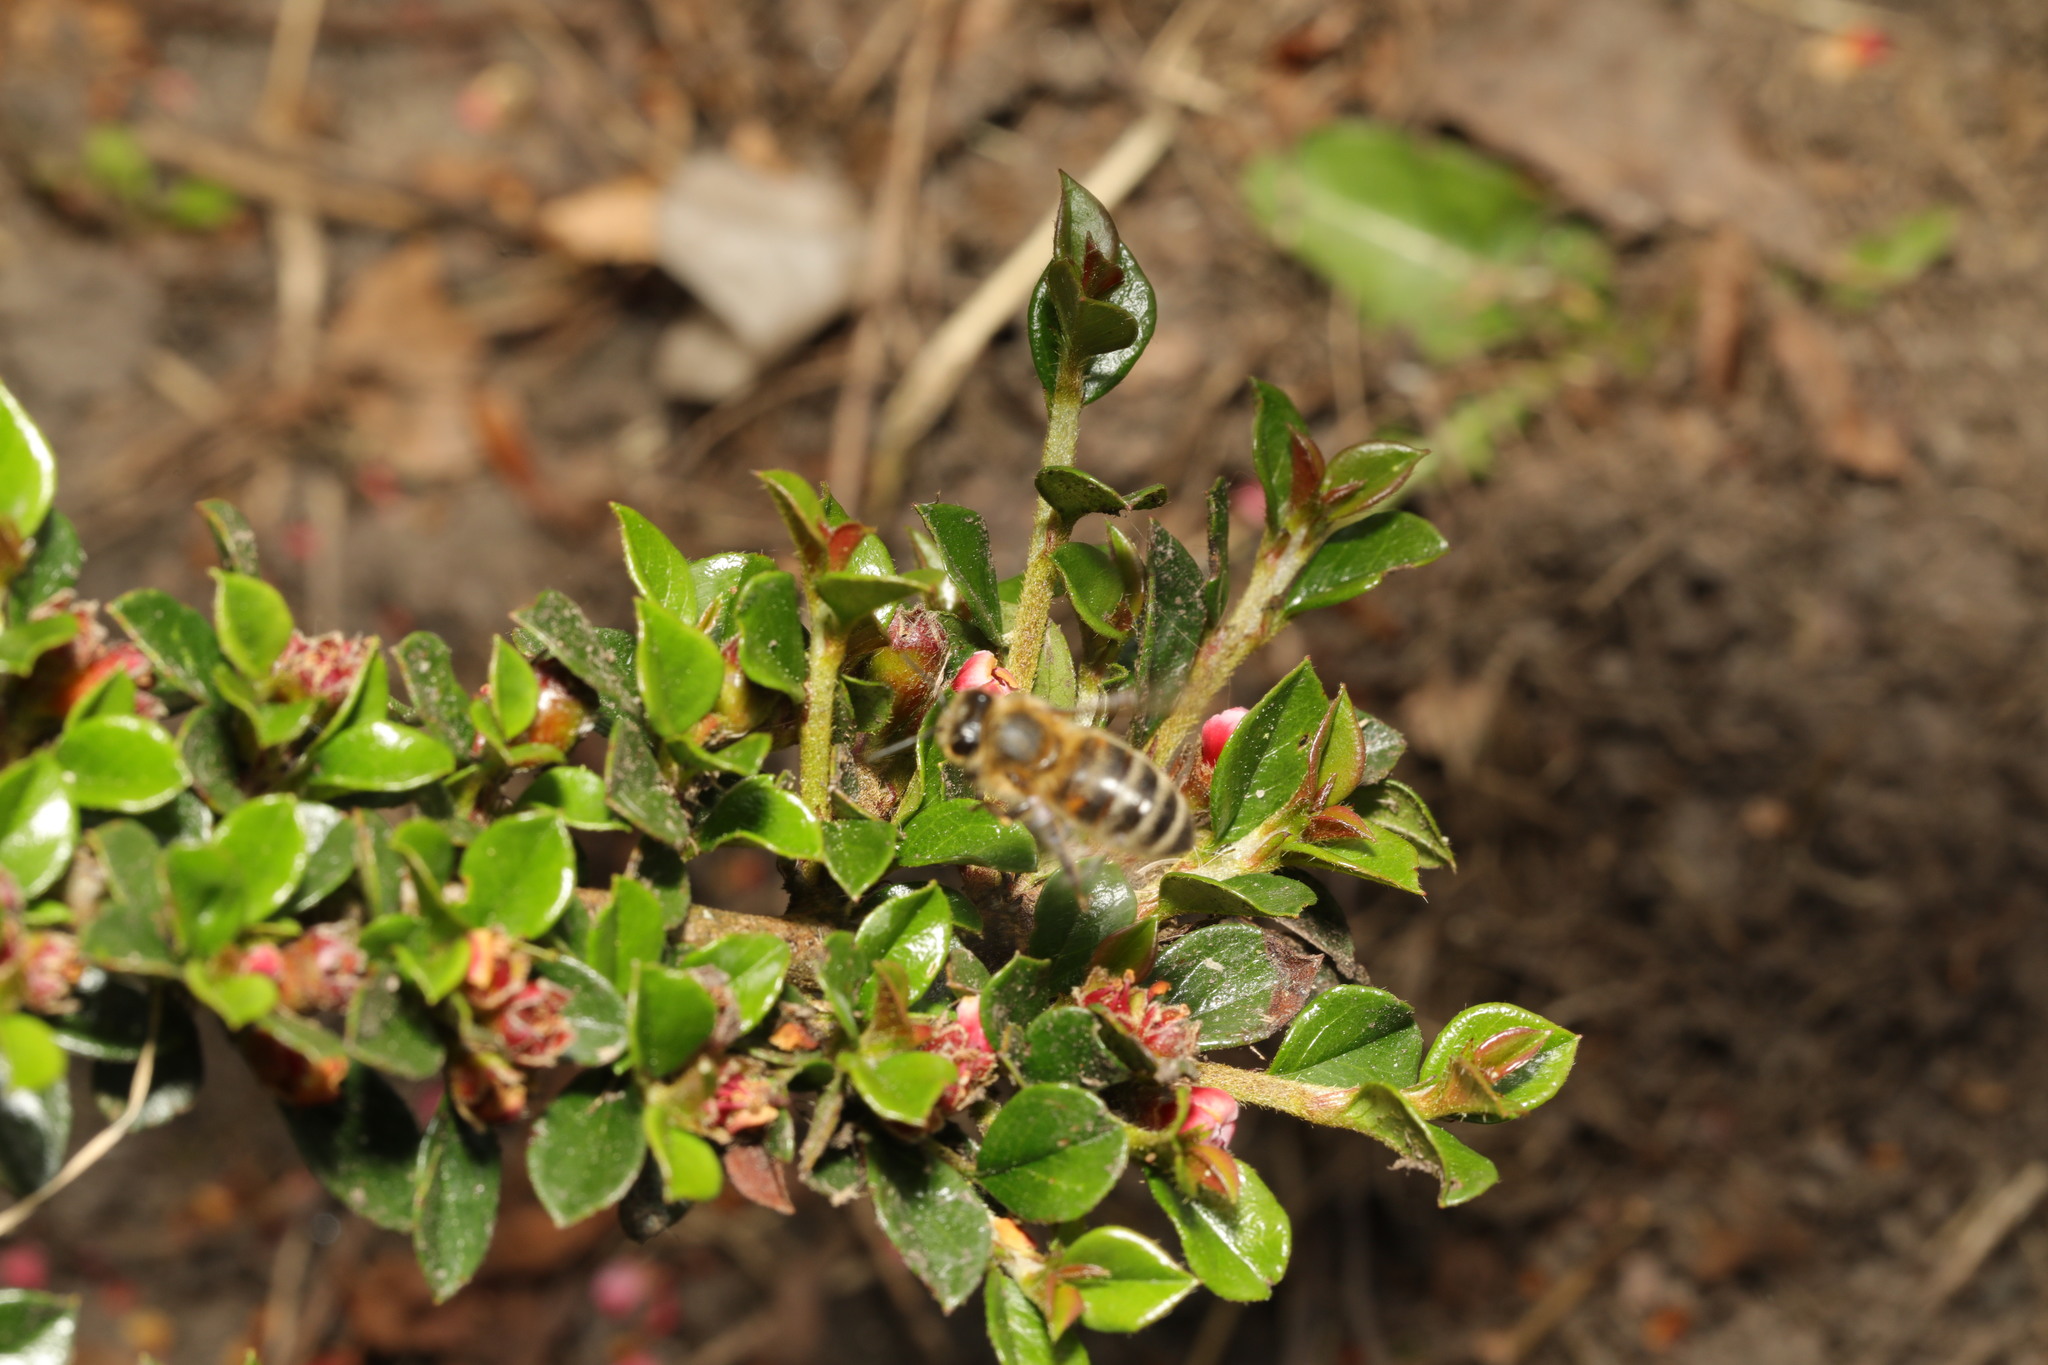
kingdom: Animalia
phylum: Arthropoda
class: Insecta
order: Hymenoptera
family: Apidae
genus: Apis
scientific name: Apis mellifera
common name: Honey bee
